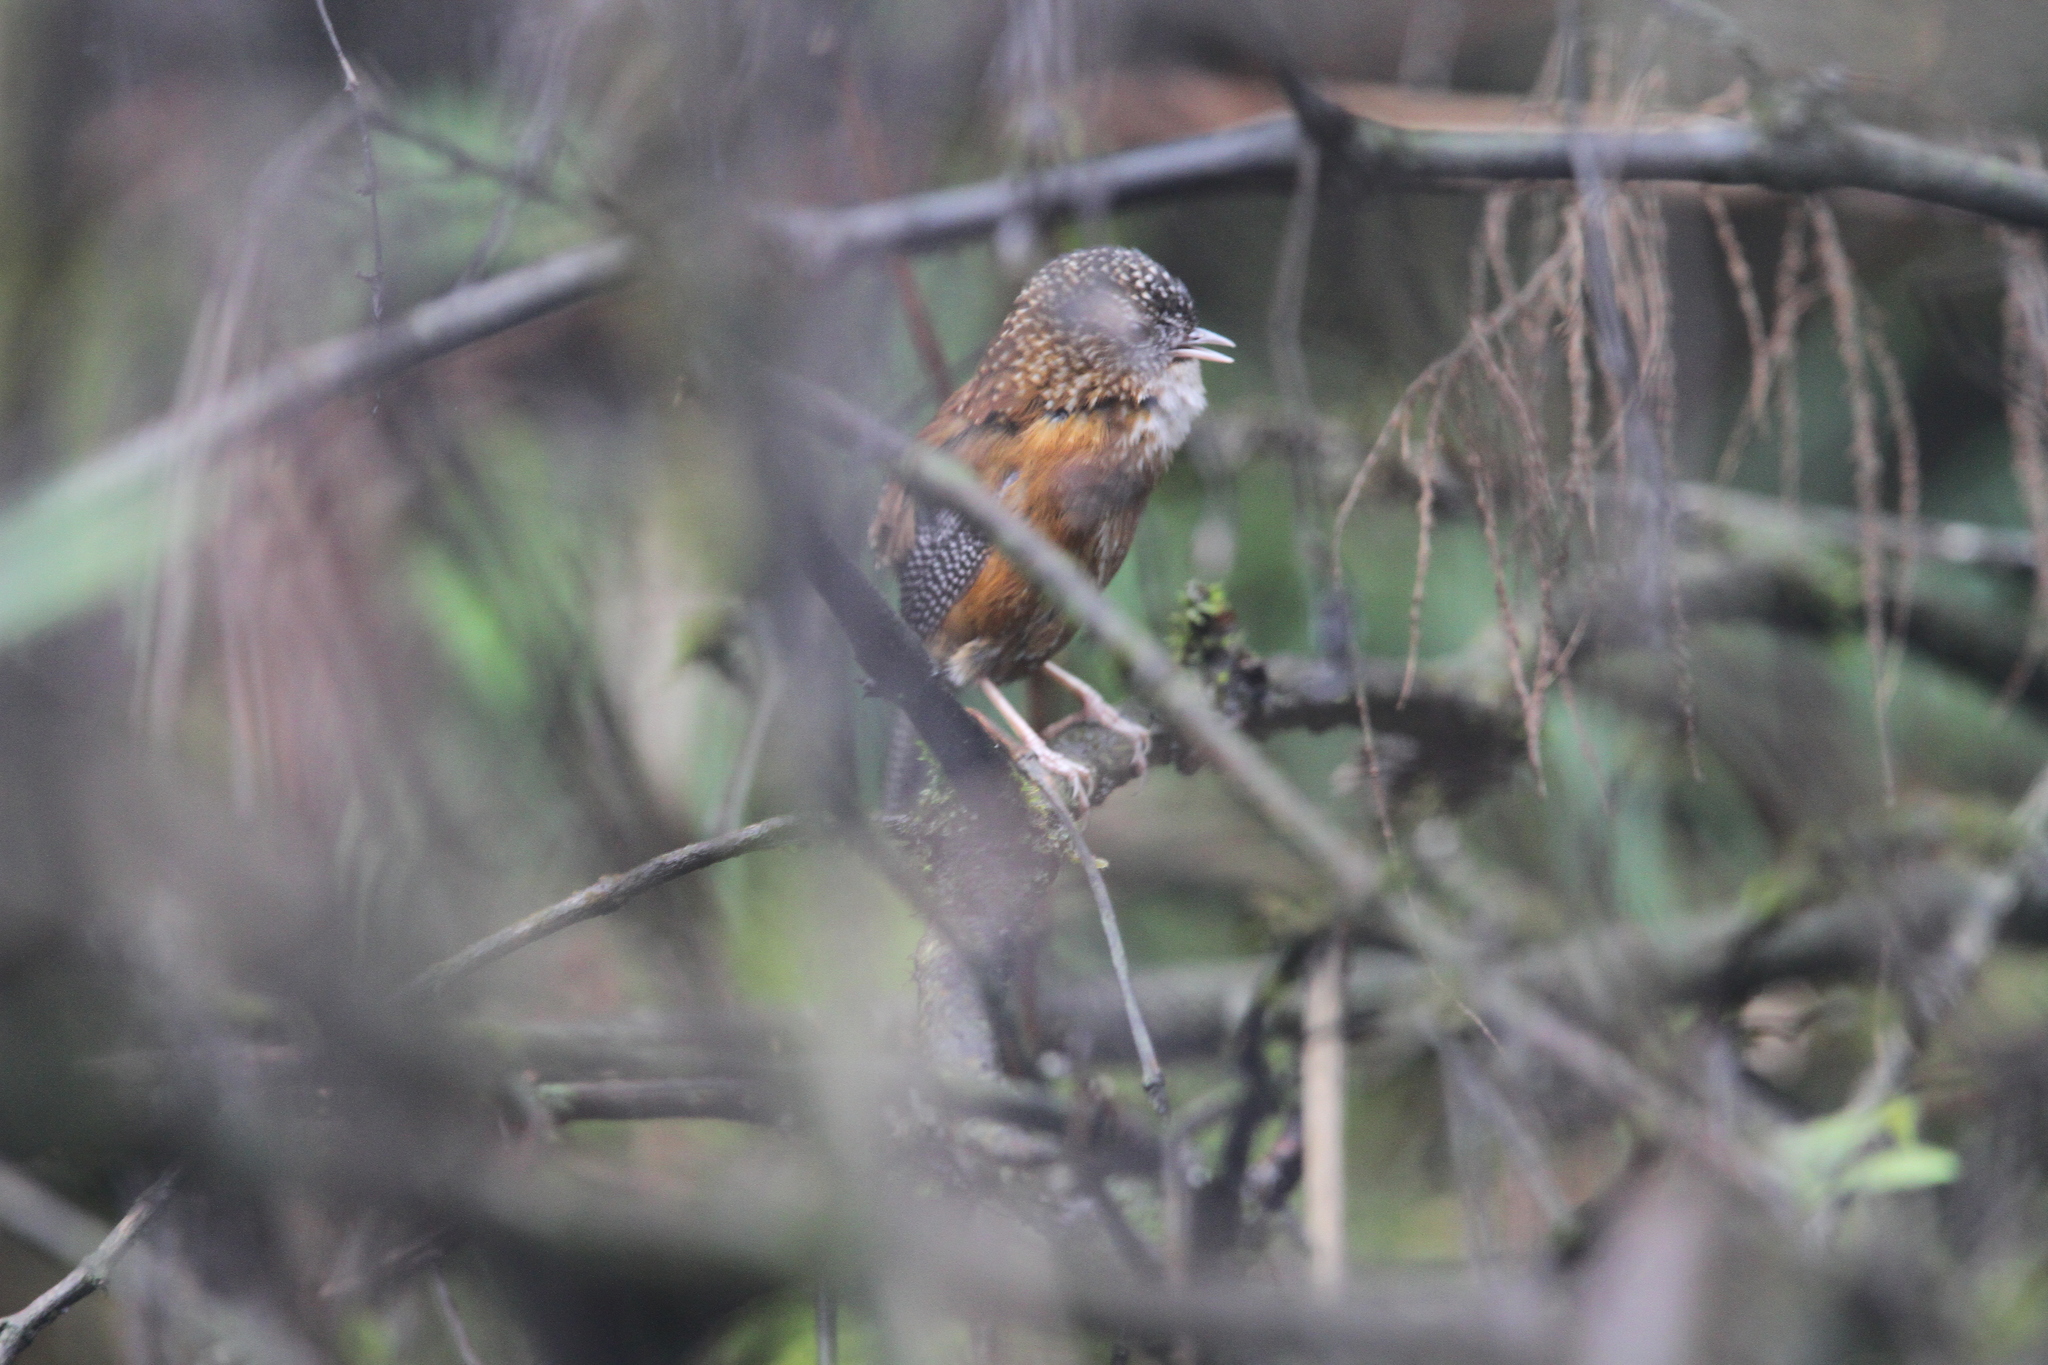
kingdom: Animalia
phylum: Chordata
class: Aves
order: Passeriformes
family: Timaliidae
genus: Spelaeornis
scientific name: Spelaeornis troglodytoides
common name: Bar-winged wren-babbler
